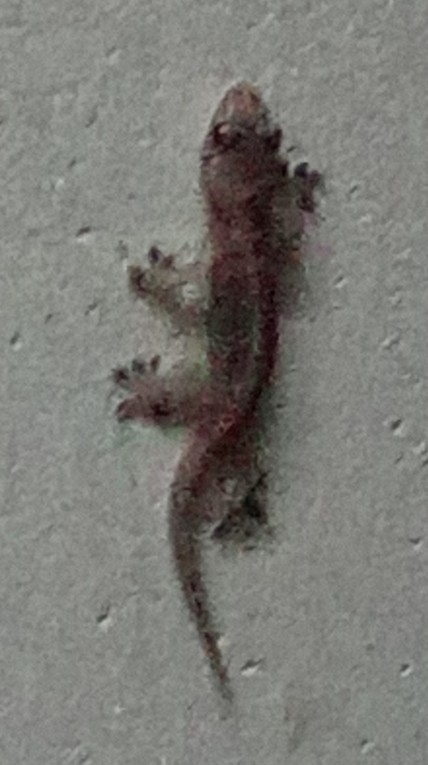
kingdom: Animalia
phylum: Chordata
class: Squamata
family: Gekkonidae
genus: Gehyra
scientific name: Gehyra mutilata
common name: Stump-toed gecko
